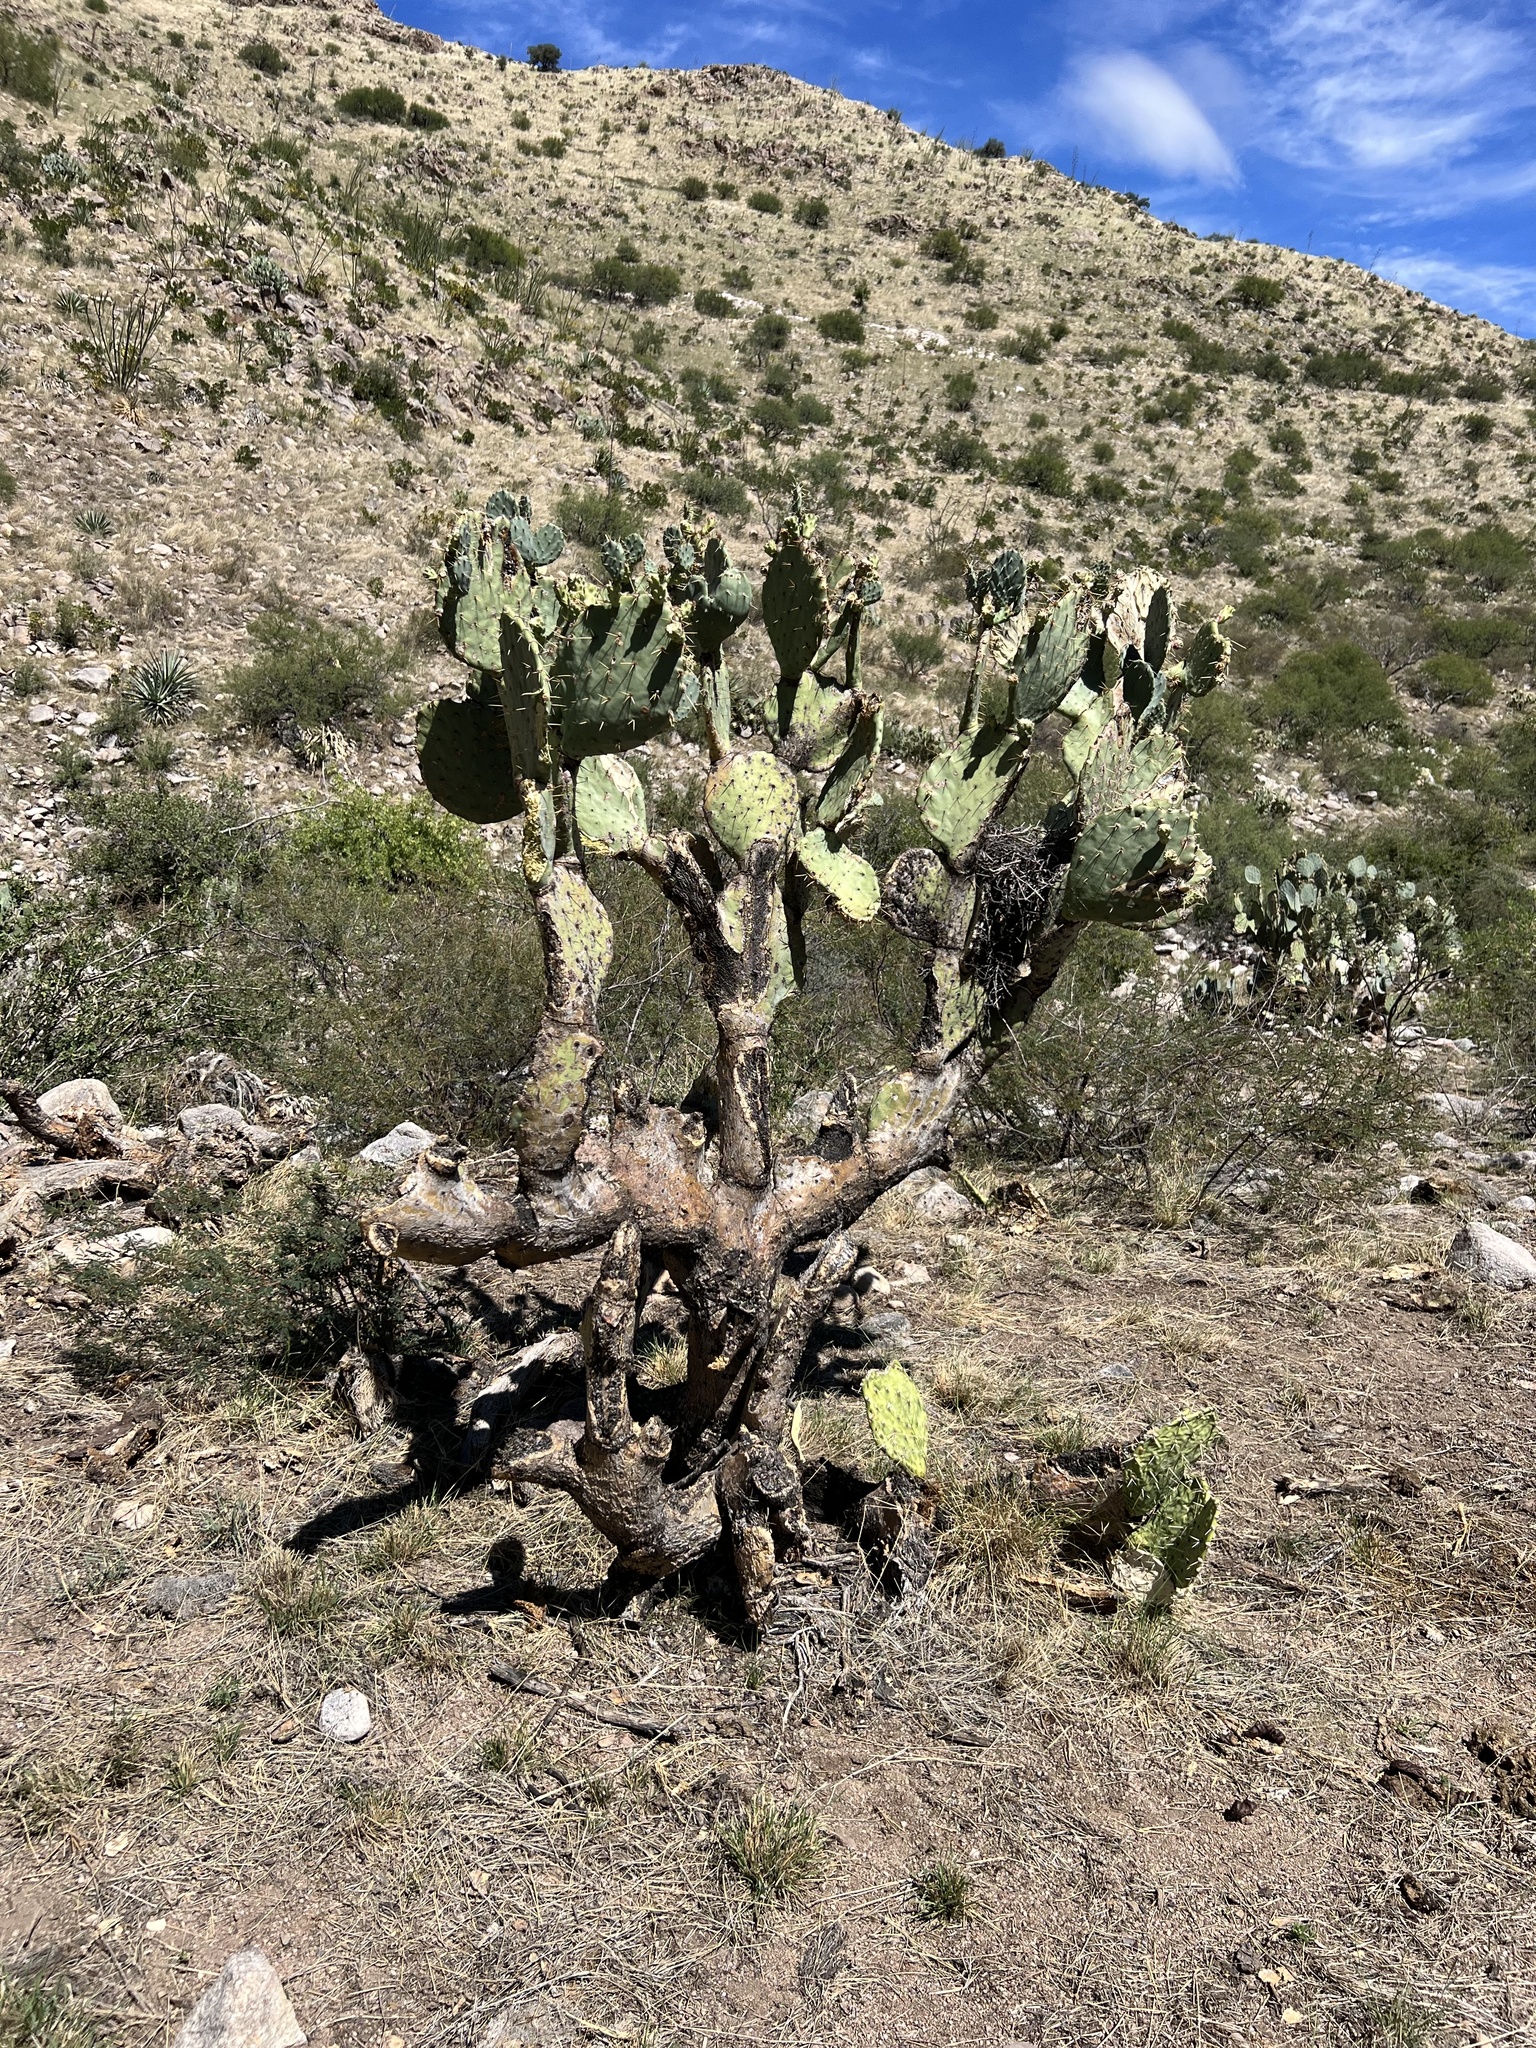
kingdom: Plantae
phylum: Tracheophyta
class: Magnoliopsida
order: Caryophyllales
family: Cactaceae
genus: Opuntia
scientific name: Opuntia engelmannii
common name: Cactus-apple
